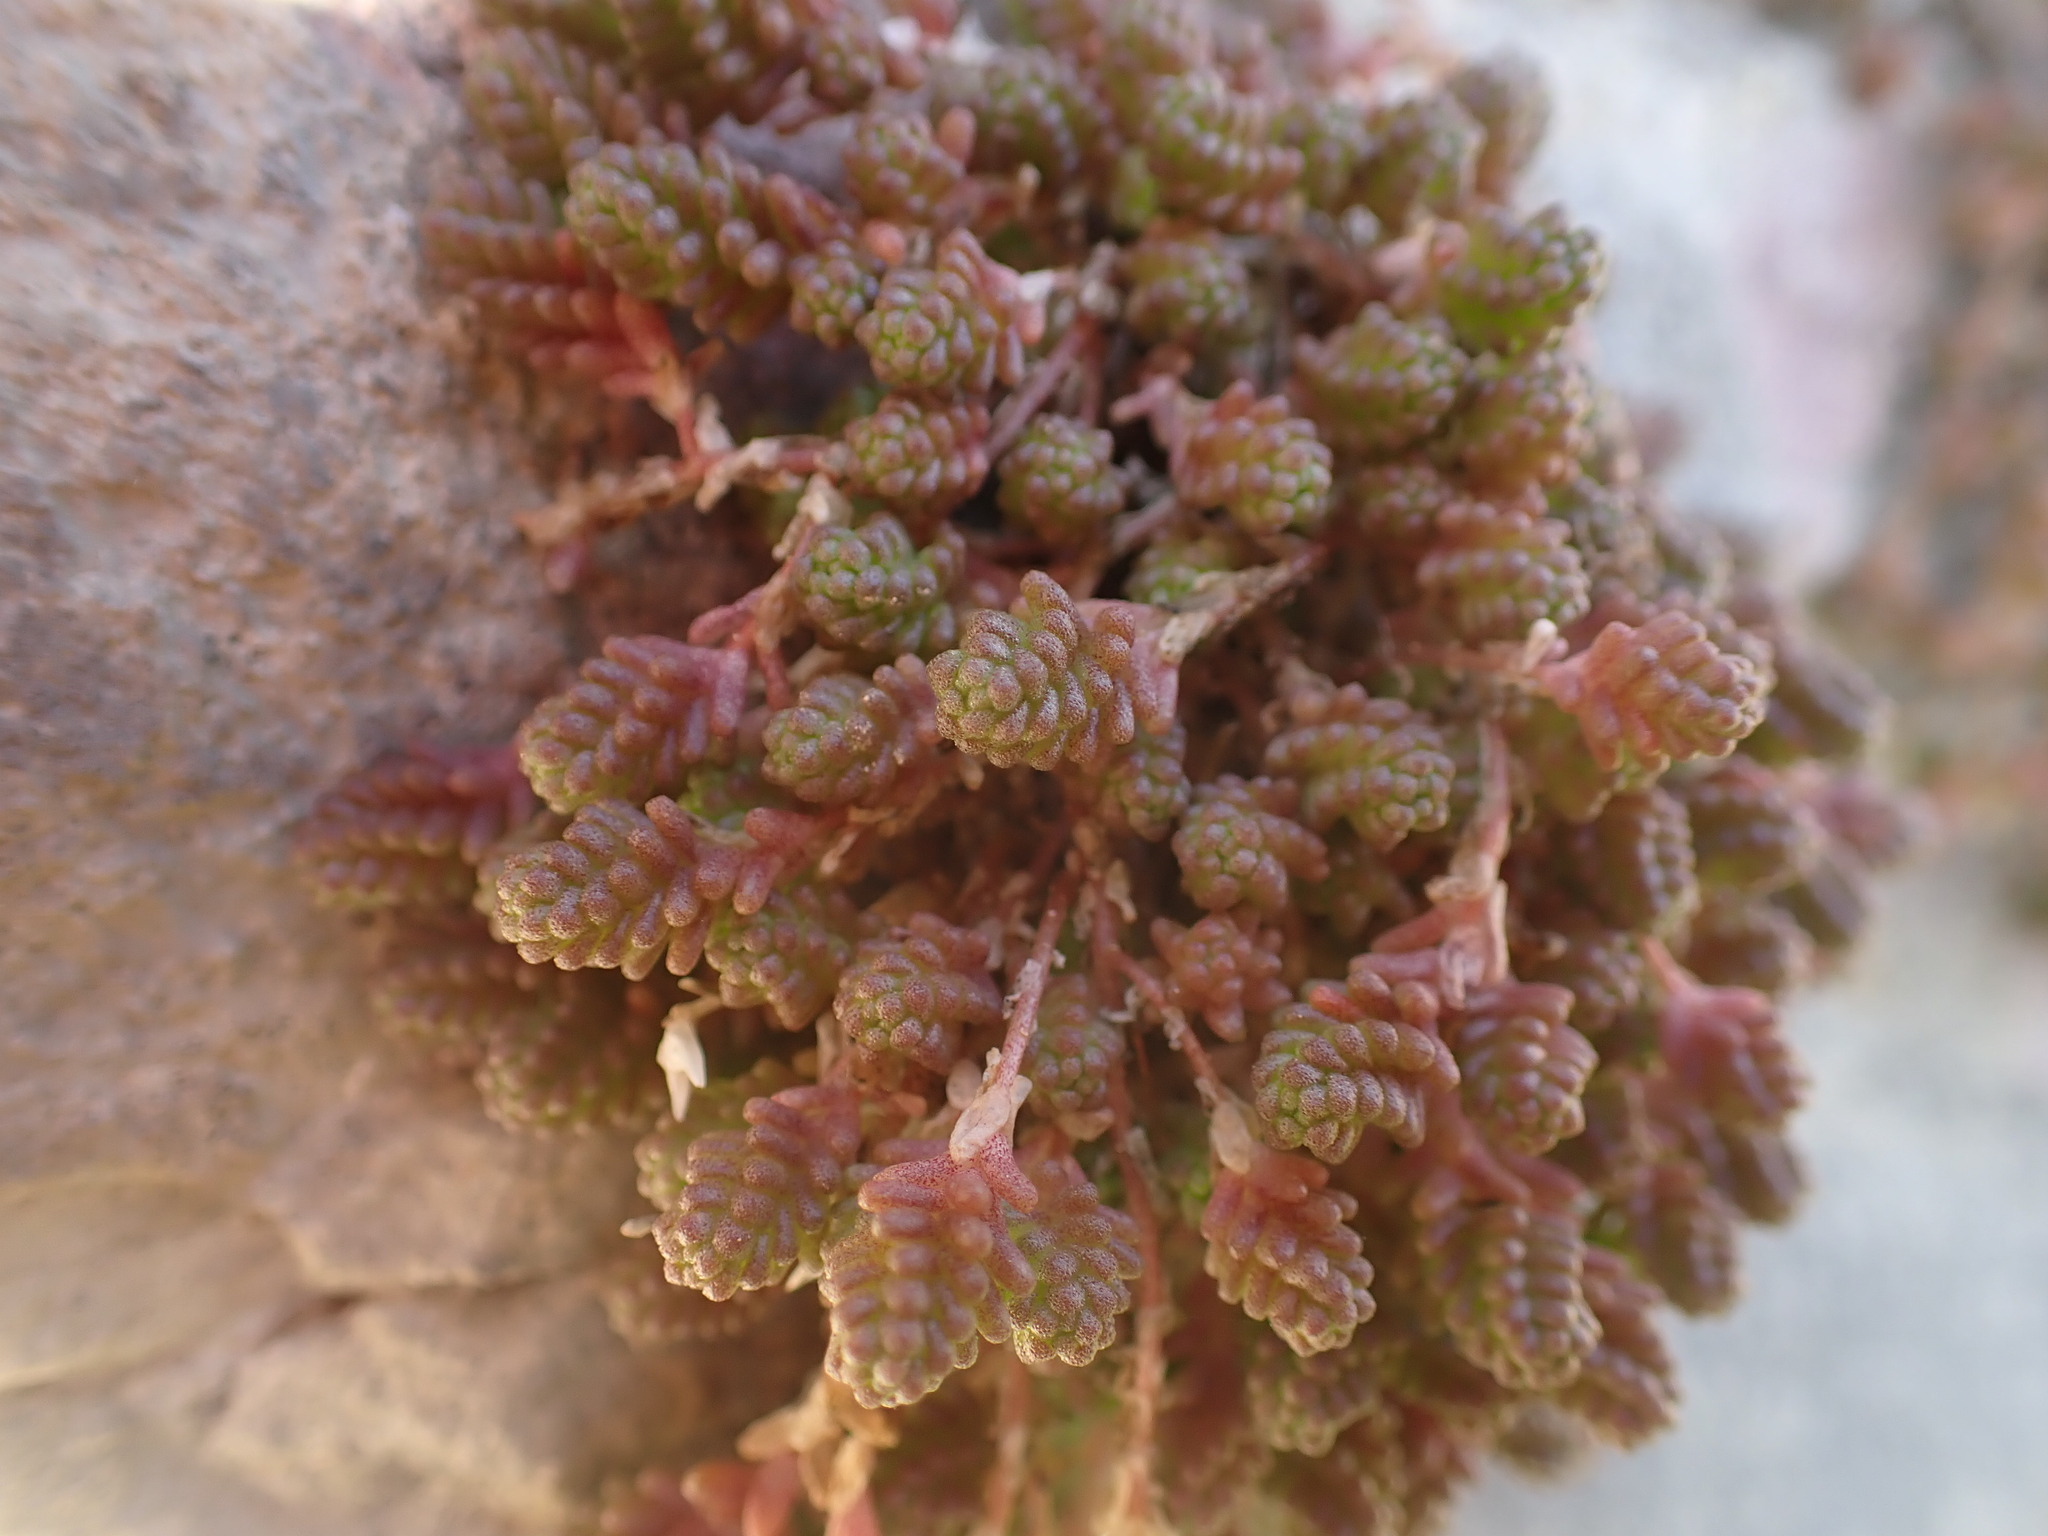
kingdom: Plantae
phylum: Tracheophyta
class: Magnoliopsida
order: Saxifragales
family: Crassulaceae
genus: Sedum
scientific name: Sedum acre
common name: Biting stonecrop
